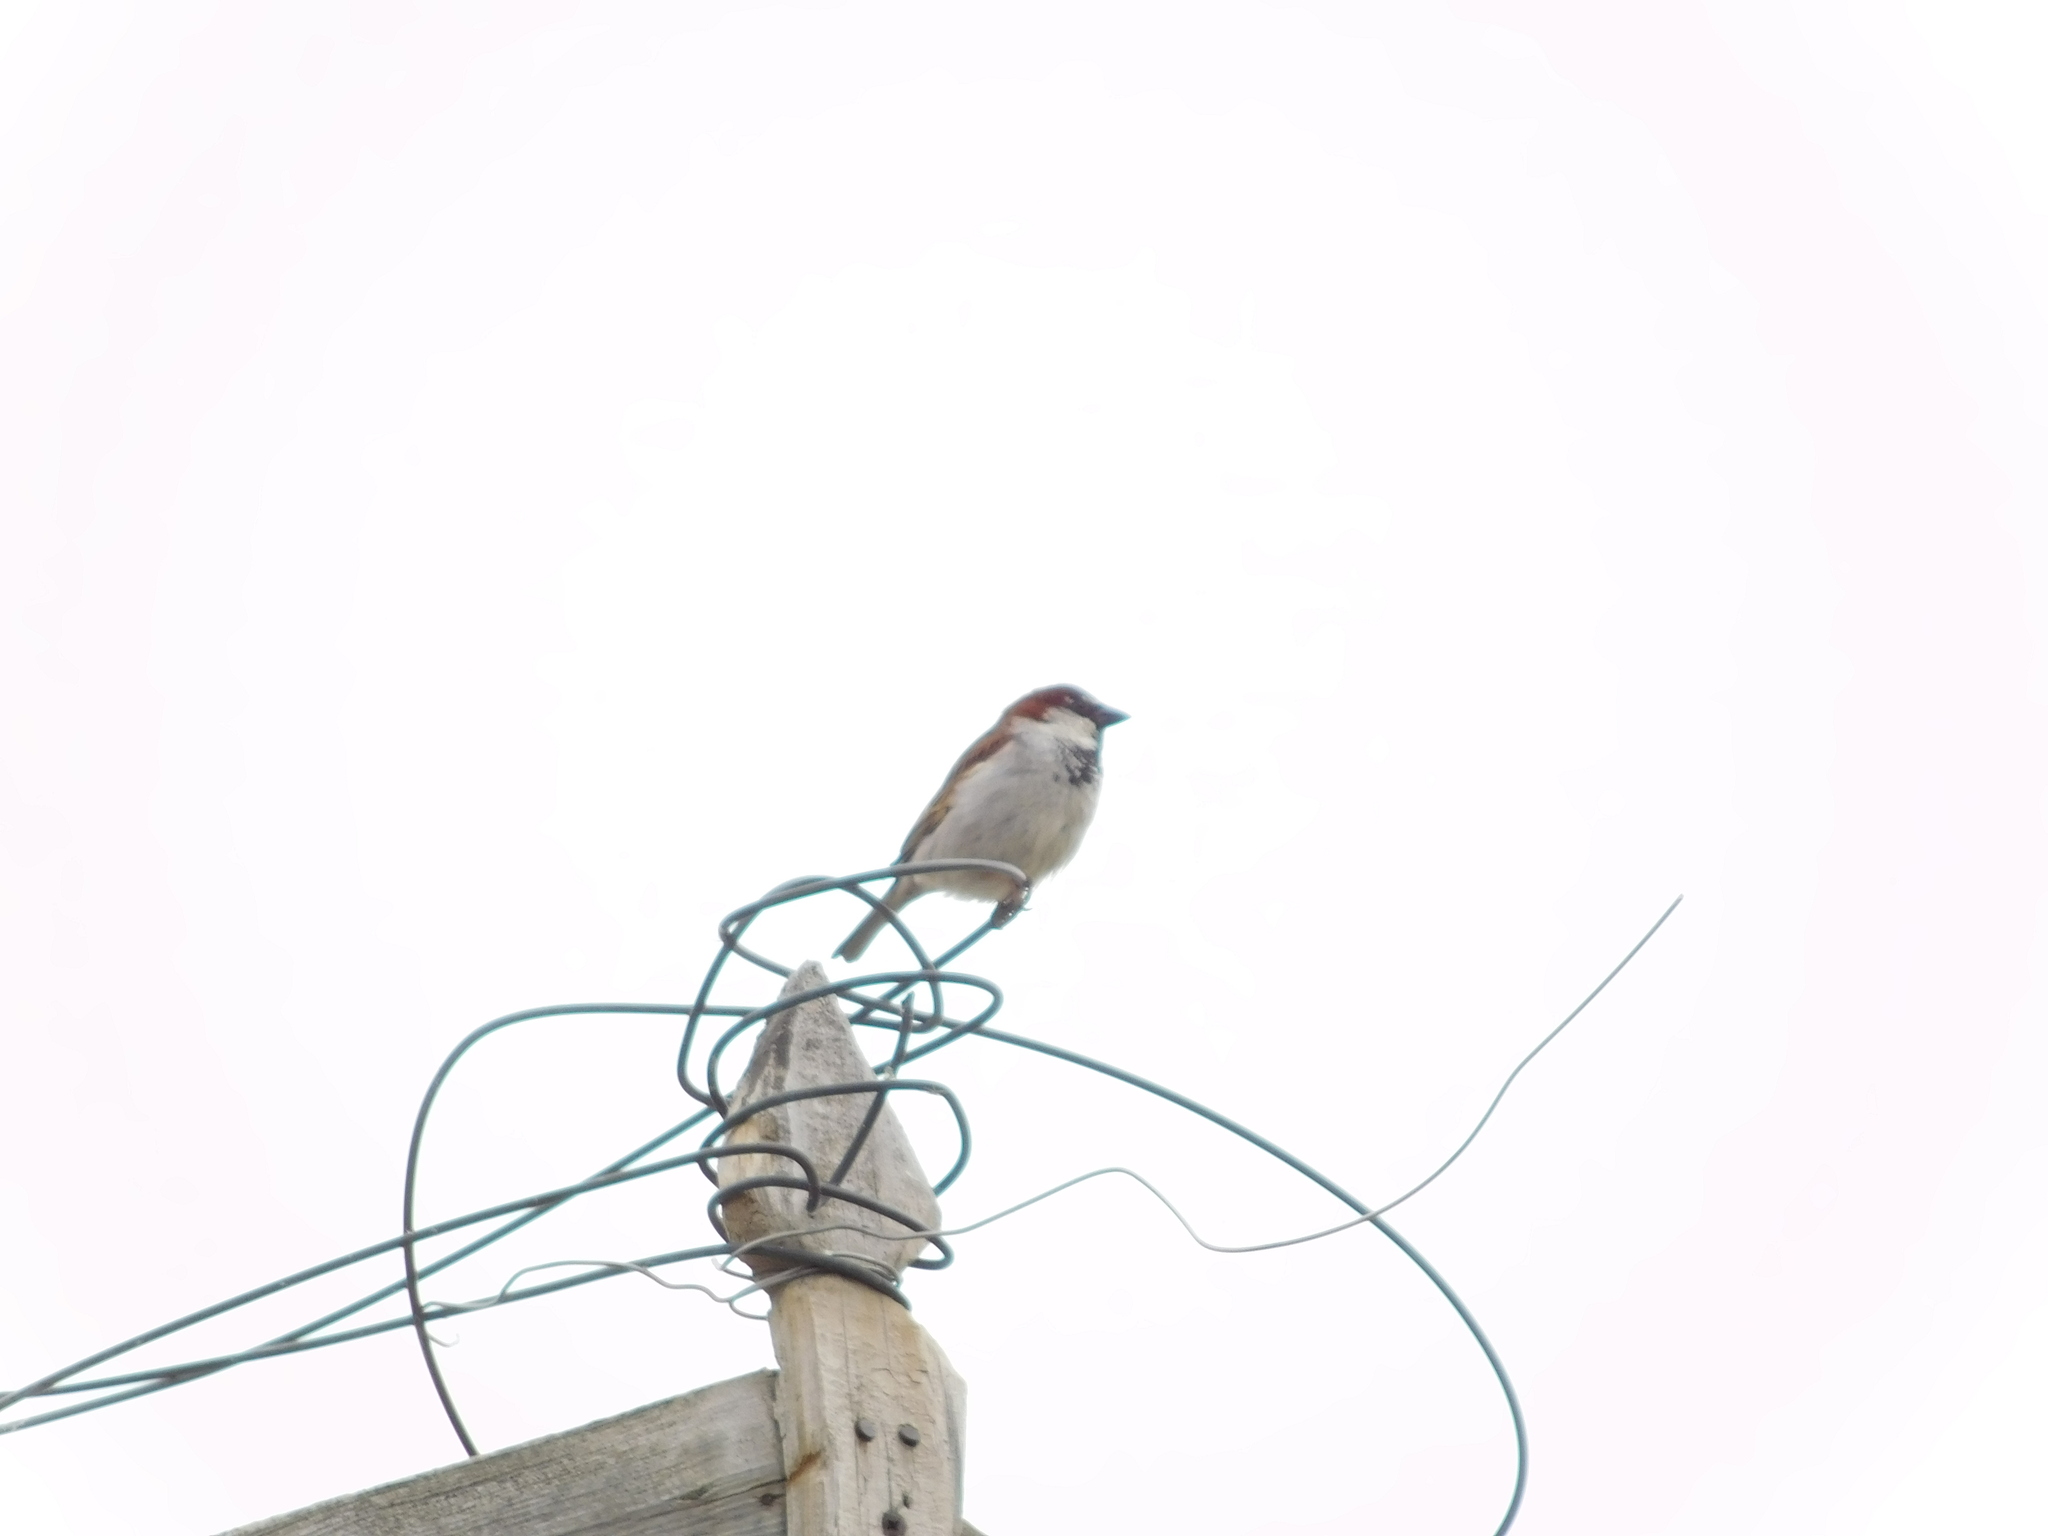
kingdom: Animalia
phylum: Chordata
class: Aves
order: Passeriformes
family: Passeridae
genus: Passer
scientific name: Passer domesticus
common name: House sparrow
